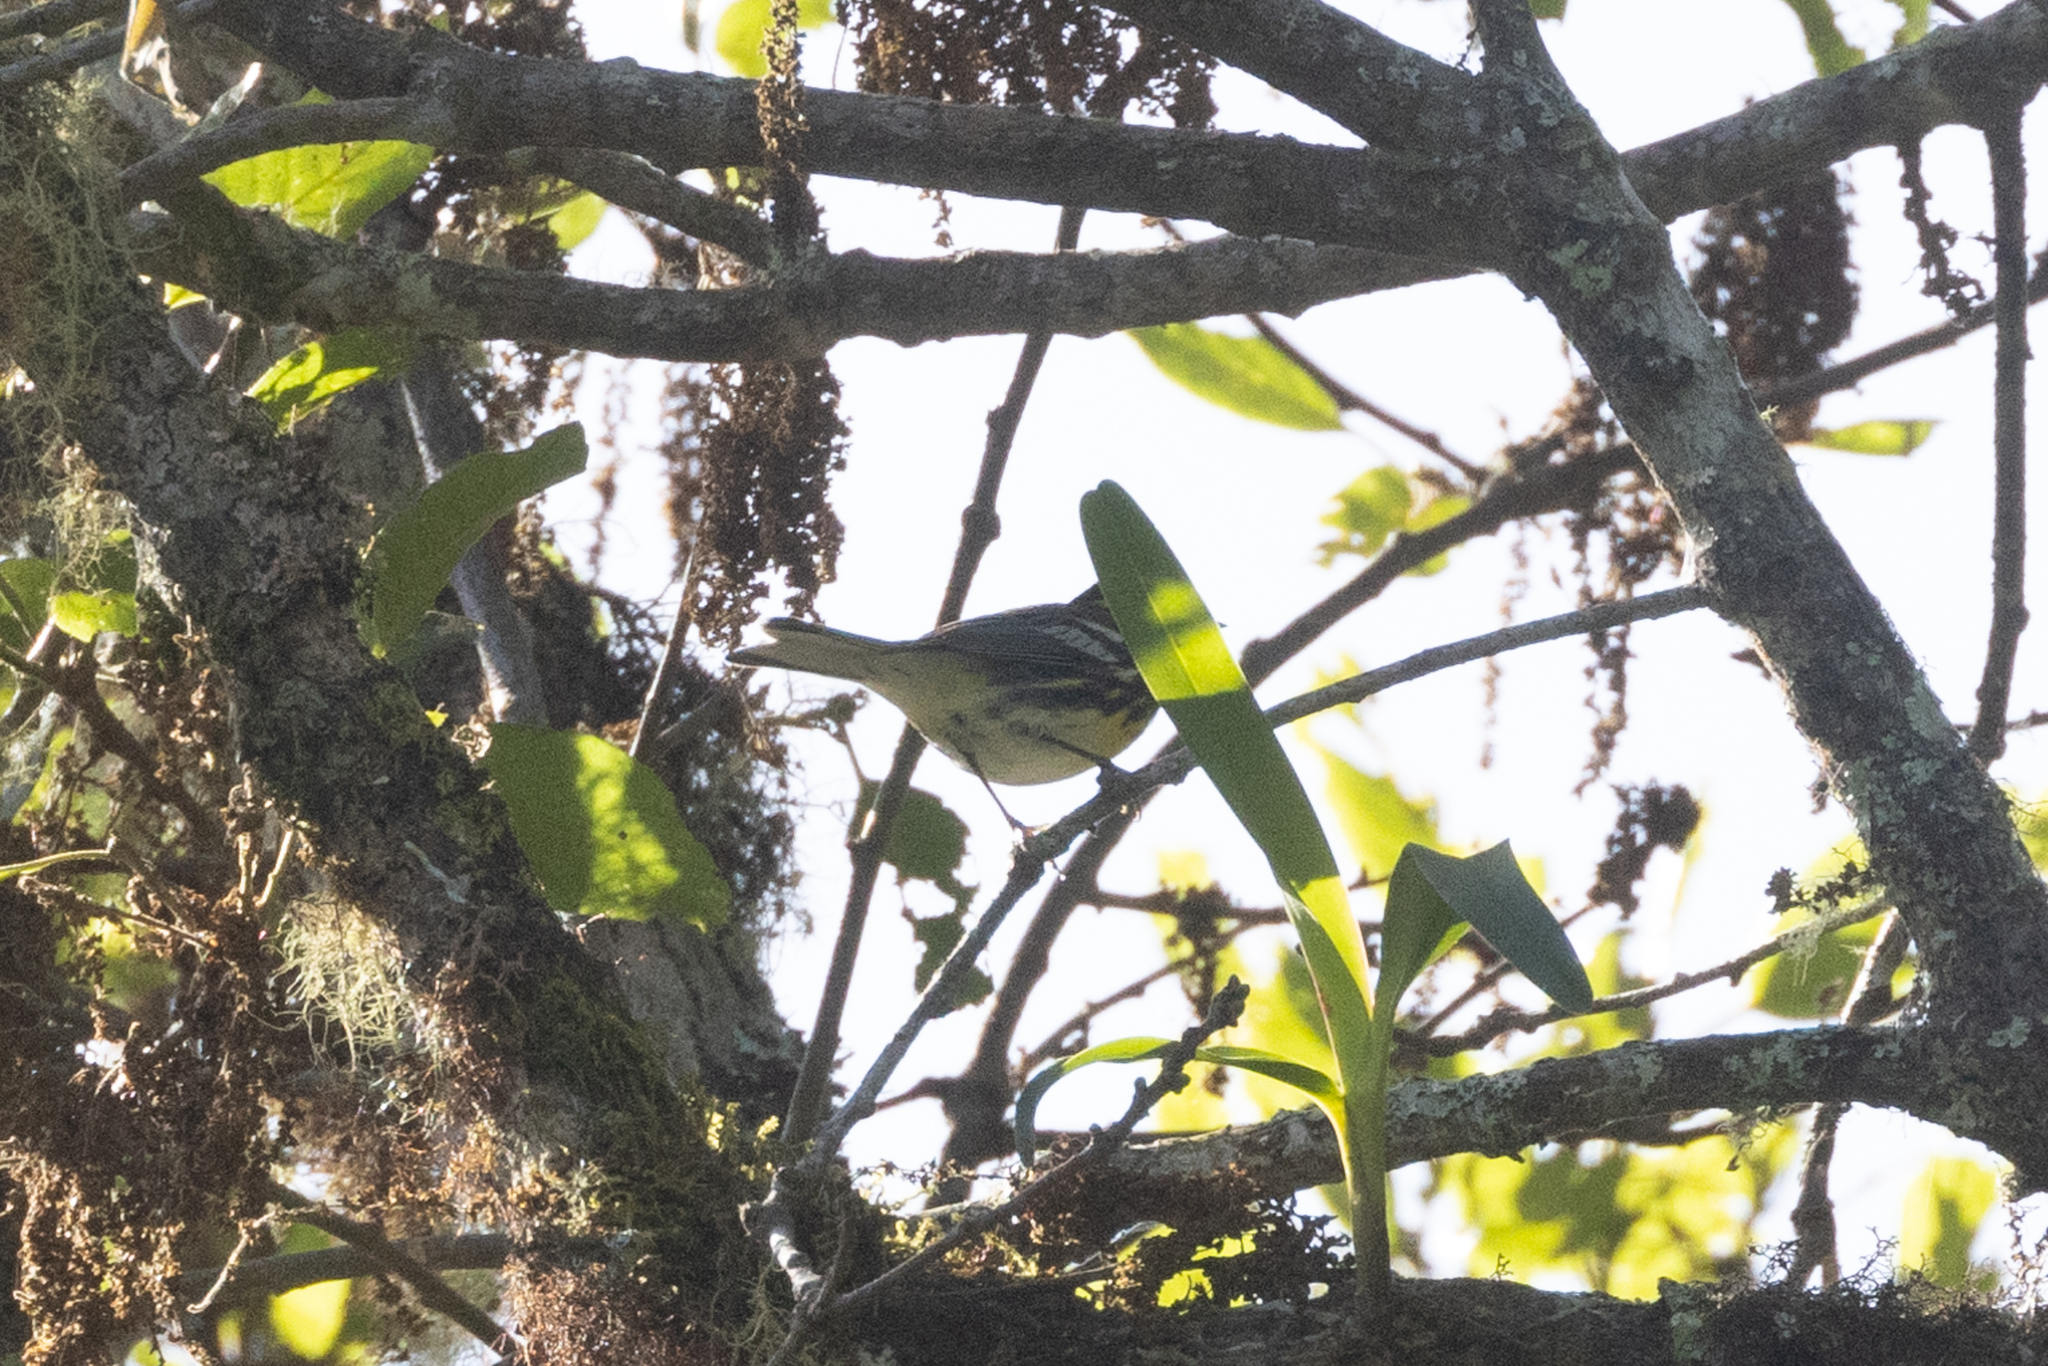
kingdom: Animalia
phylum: Chordata
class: Aves
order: Passeriformes
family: Parulidae
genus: Setophaga
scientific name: Setophaga townsendi
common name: Townsend's warbler
